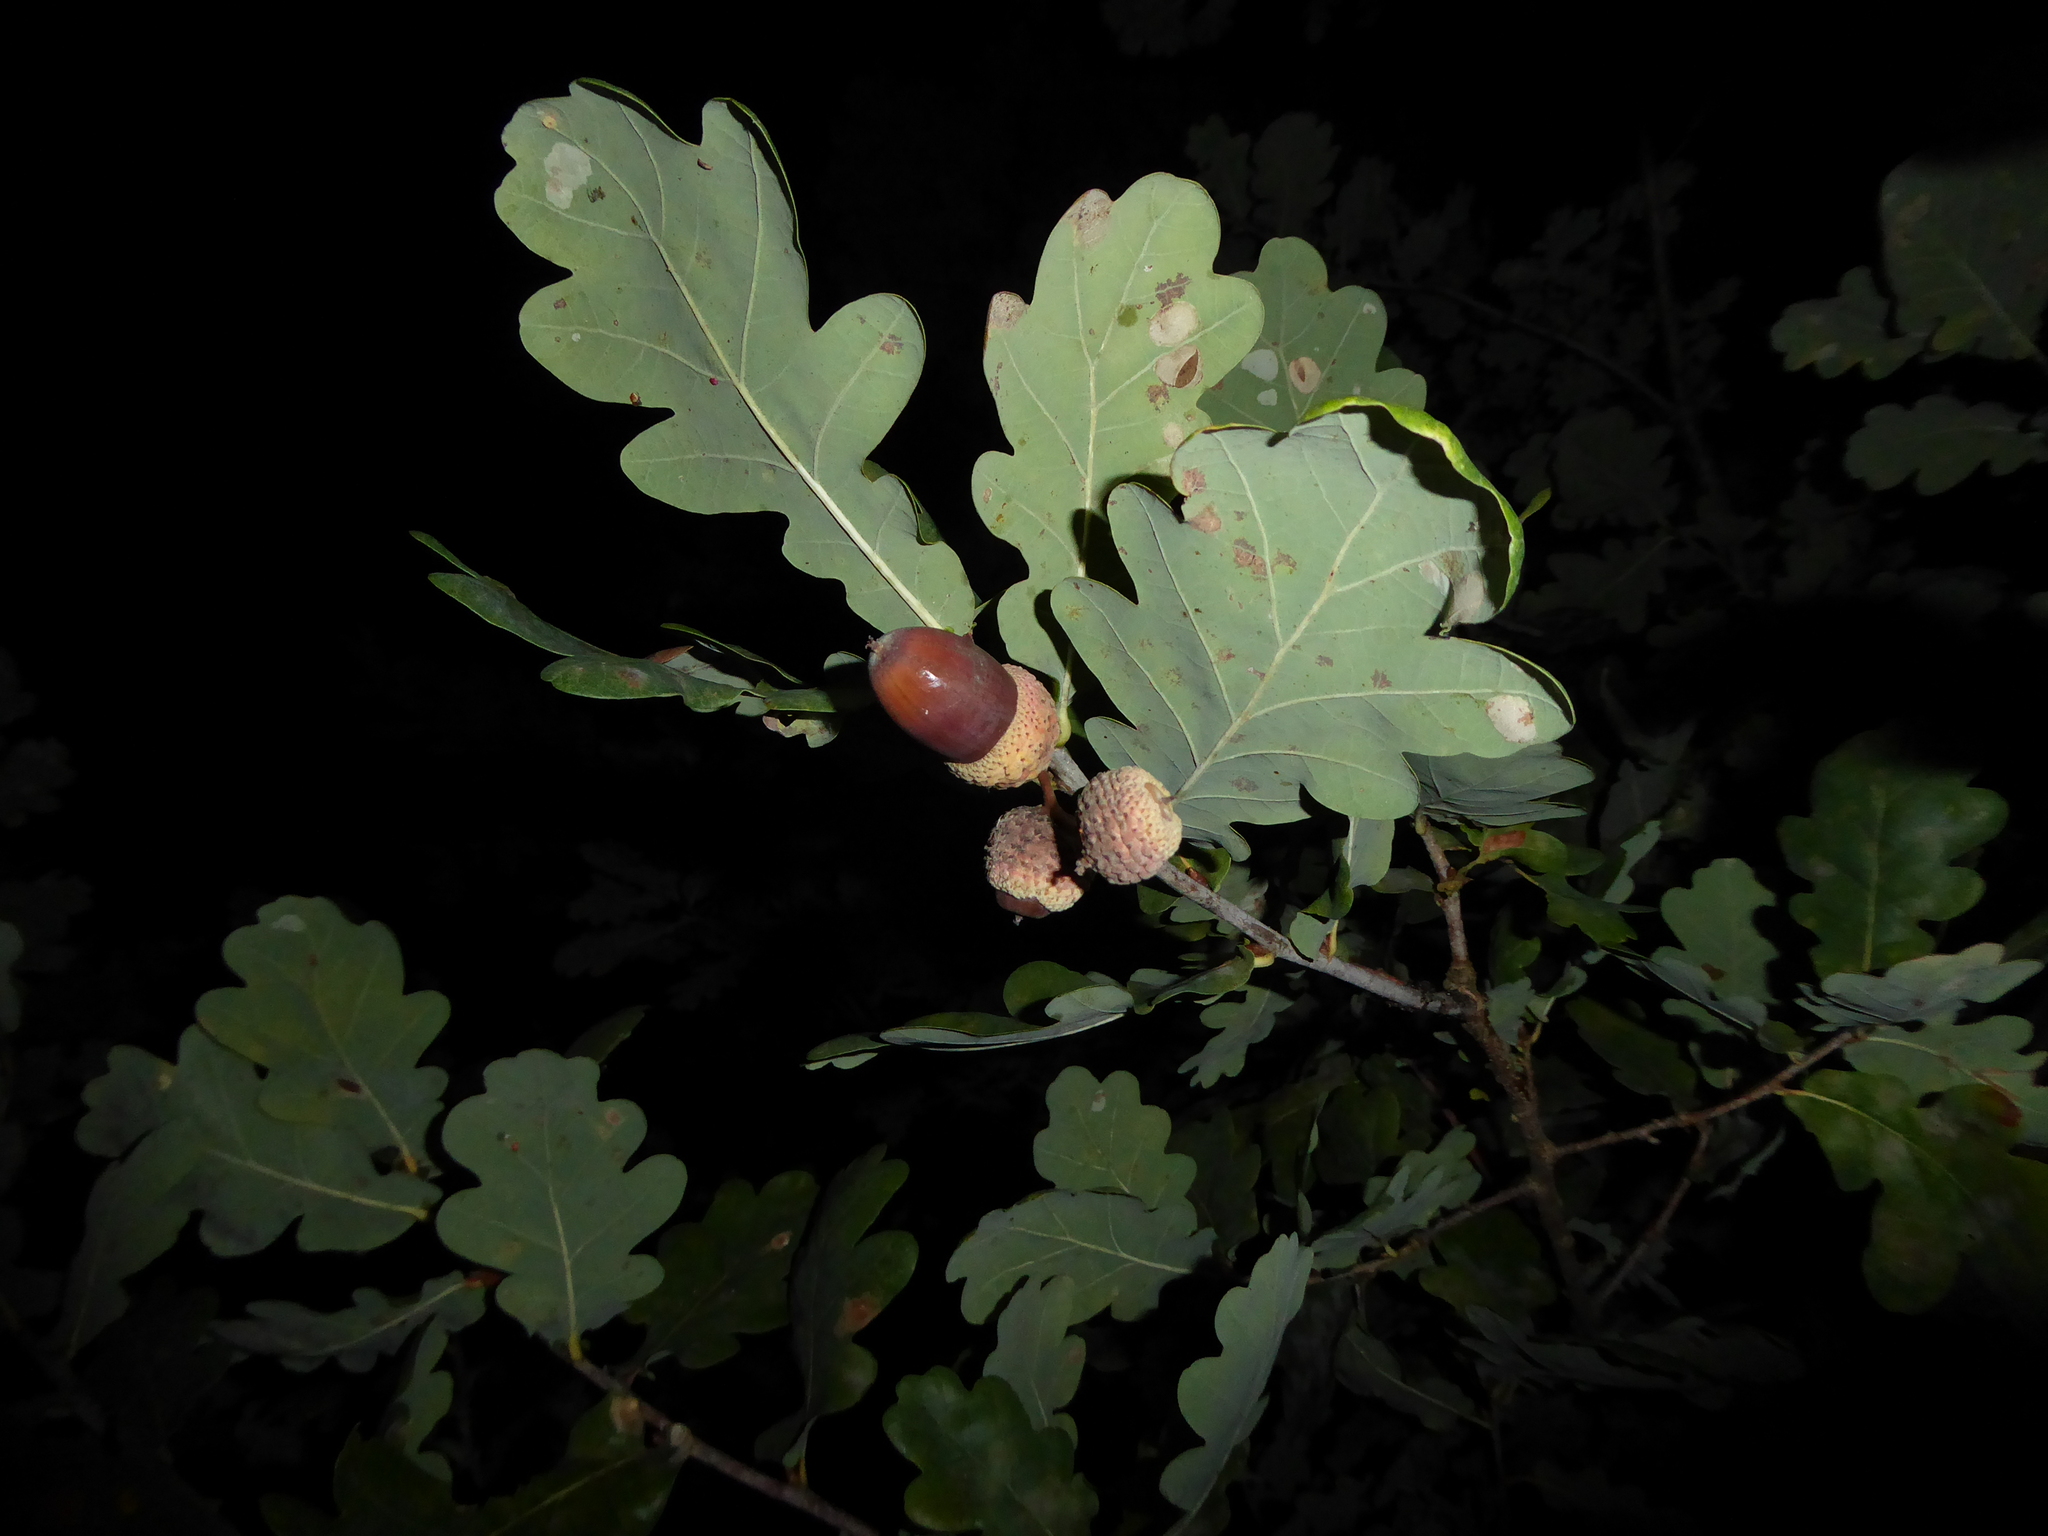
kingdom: Plantae
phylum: Tracheophyta
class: Magnoliopsida
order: Fagales
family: Fagaceae
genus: Quercus
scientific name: Quercus robur
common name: Pedunculate oak
